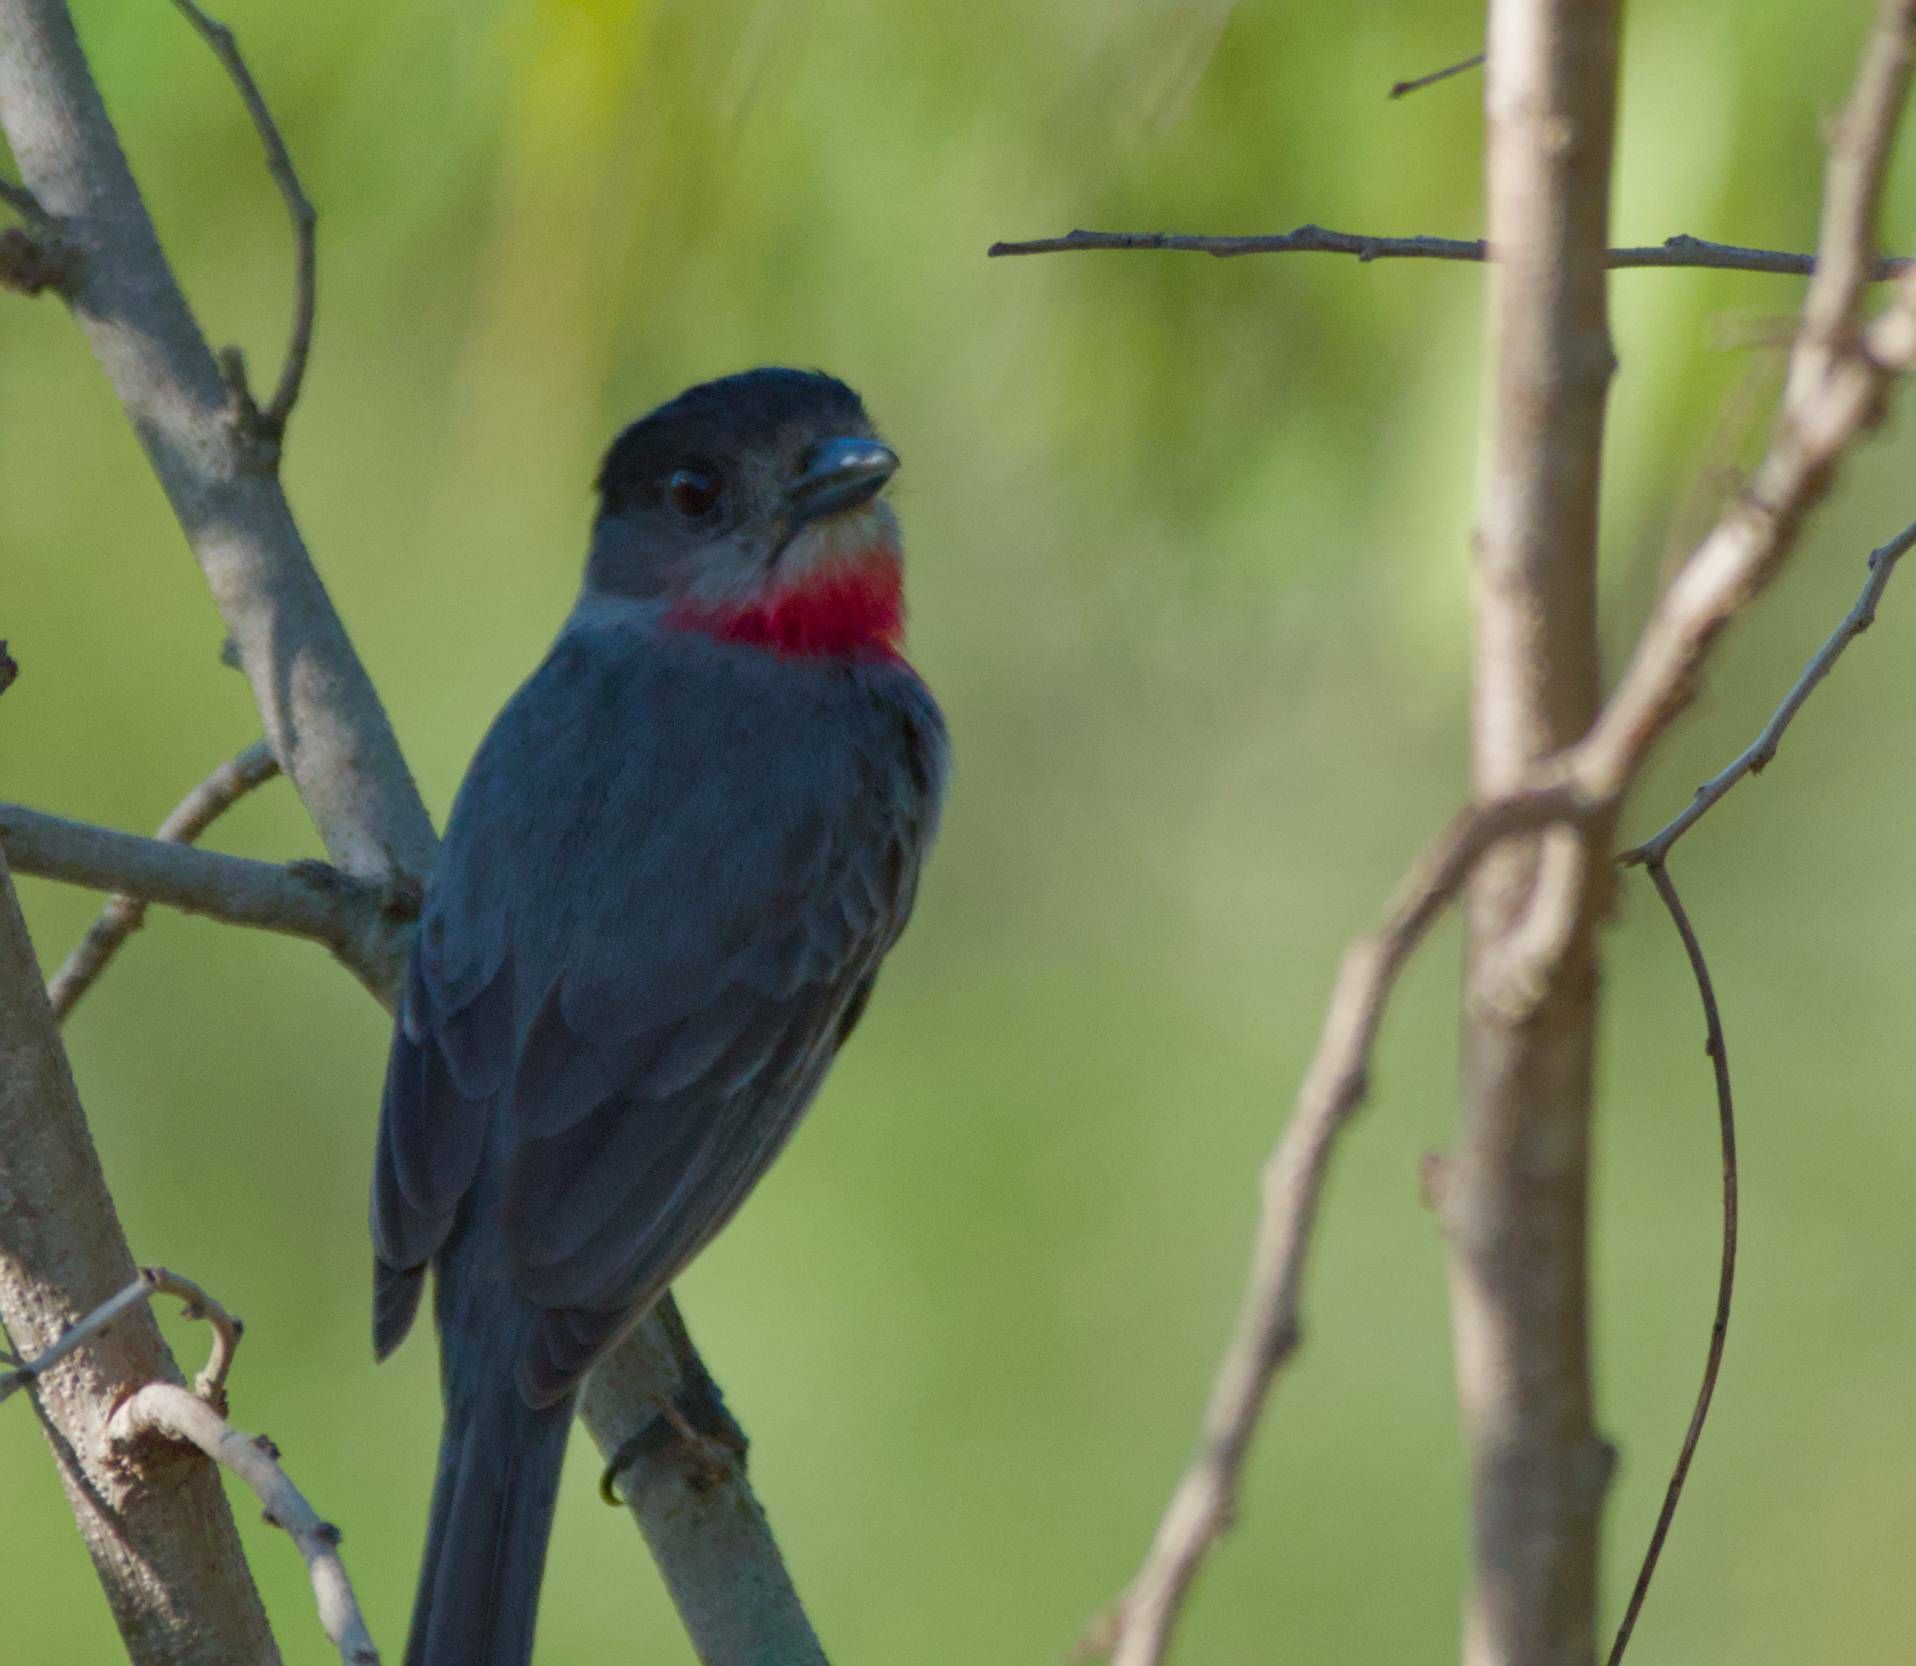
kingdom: Animalia
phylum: Chordata
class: Aves
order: Passeriformes
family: Cotingidae
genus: Pachyramphus
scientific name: Pachyramphus aglaiae
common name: Rose-throated becard
